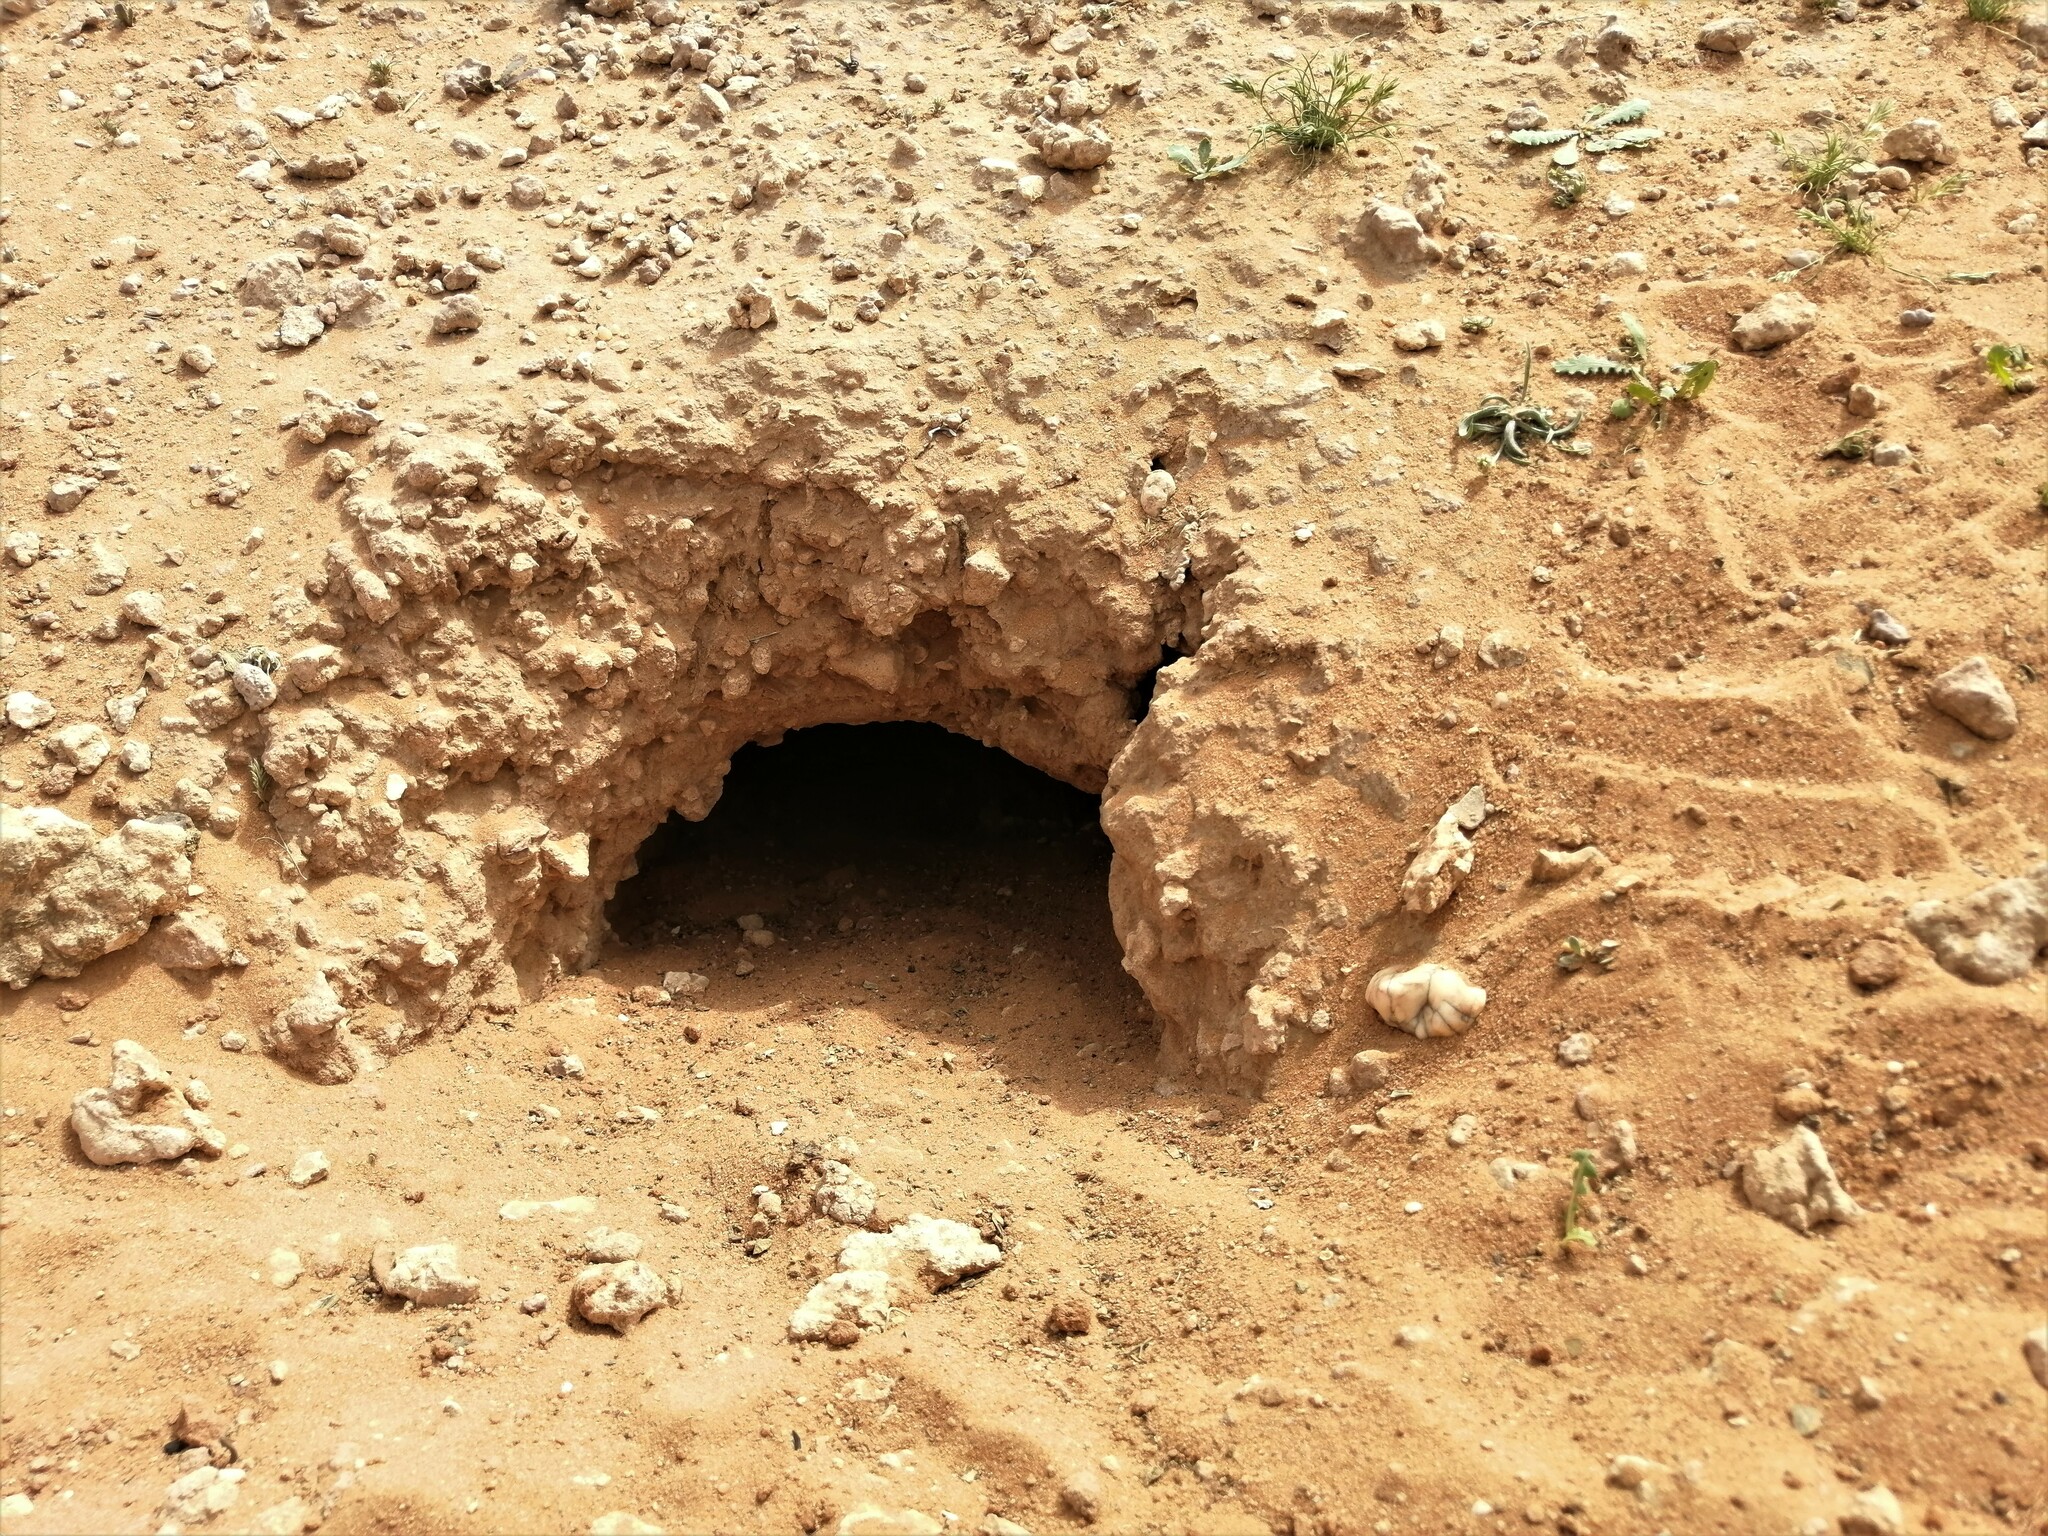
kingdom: Animalia
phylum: Chordata
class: Squamata
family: Agamidae
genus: Uromastyx
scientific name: Uromastyx aegyptia
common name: Egyptian mastigure
